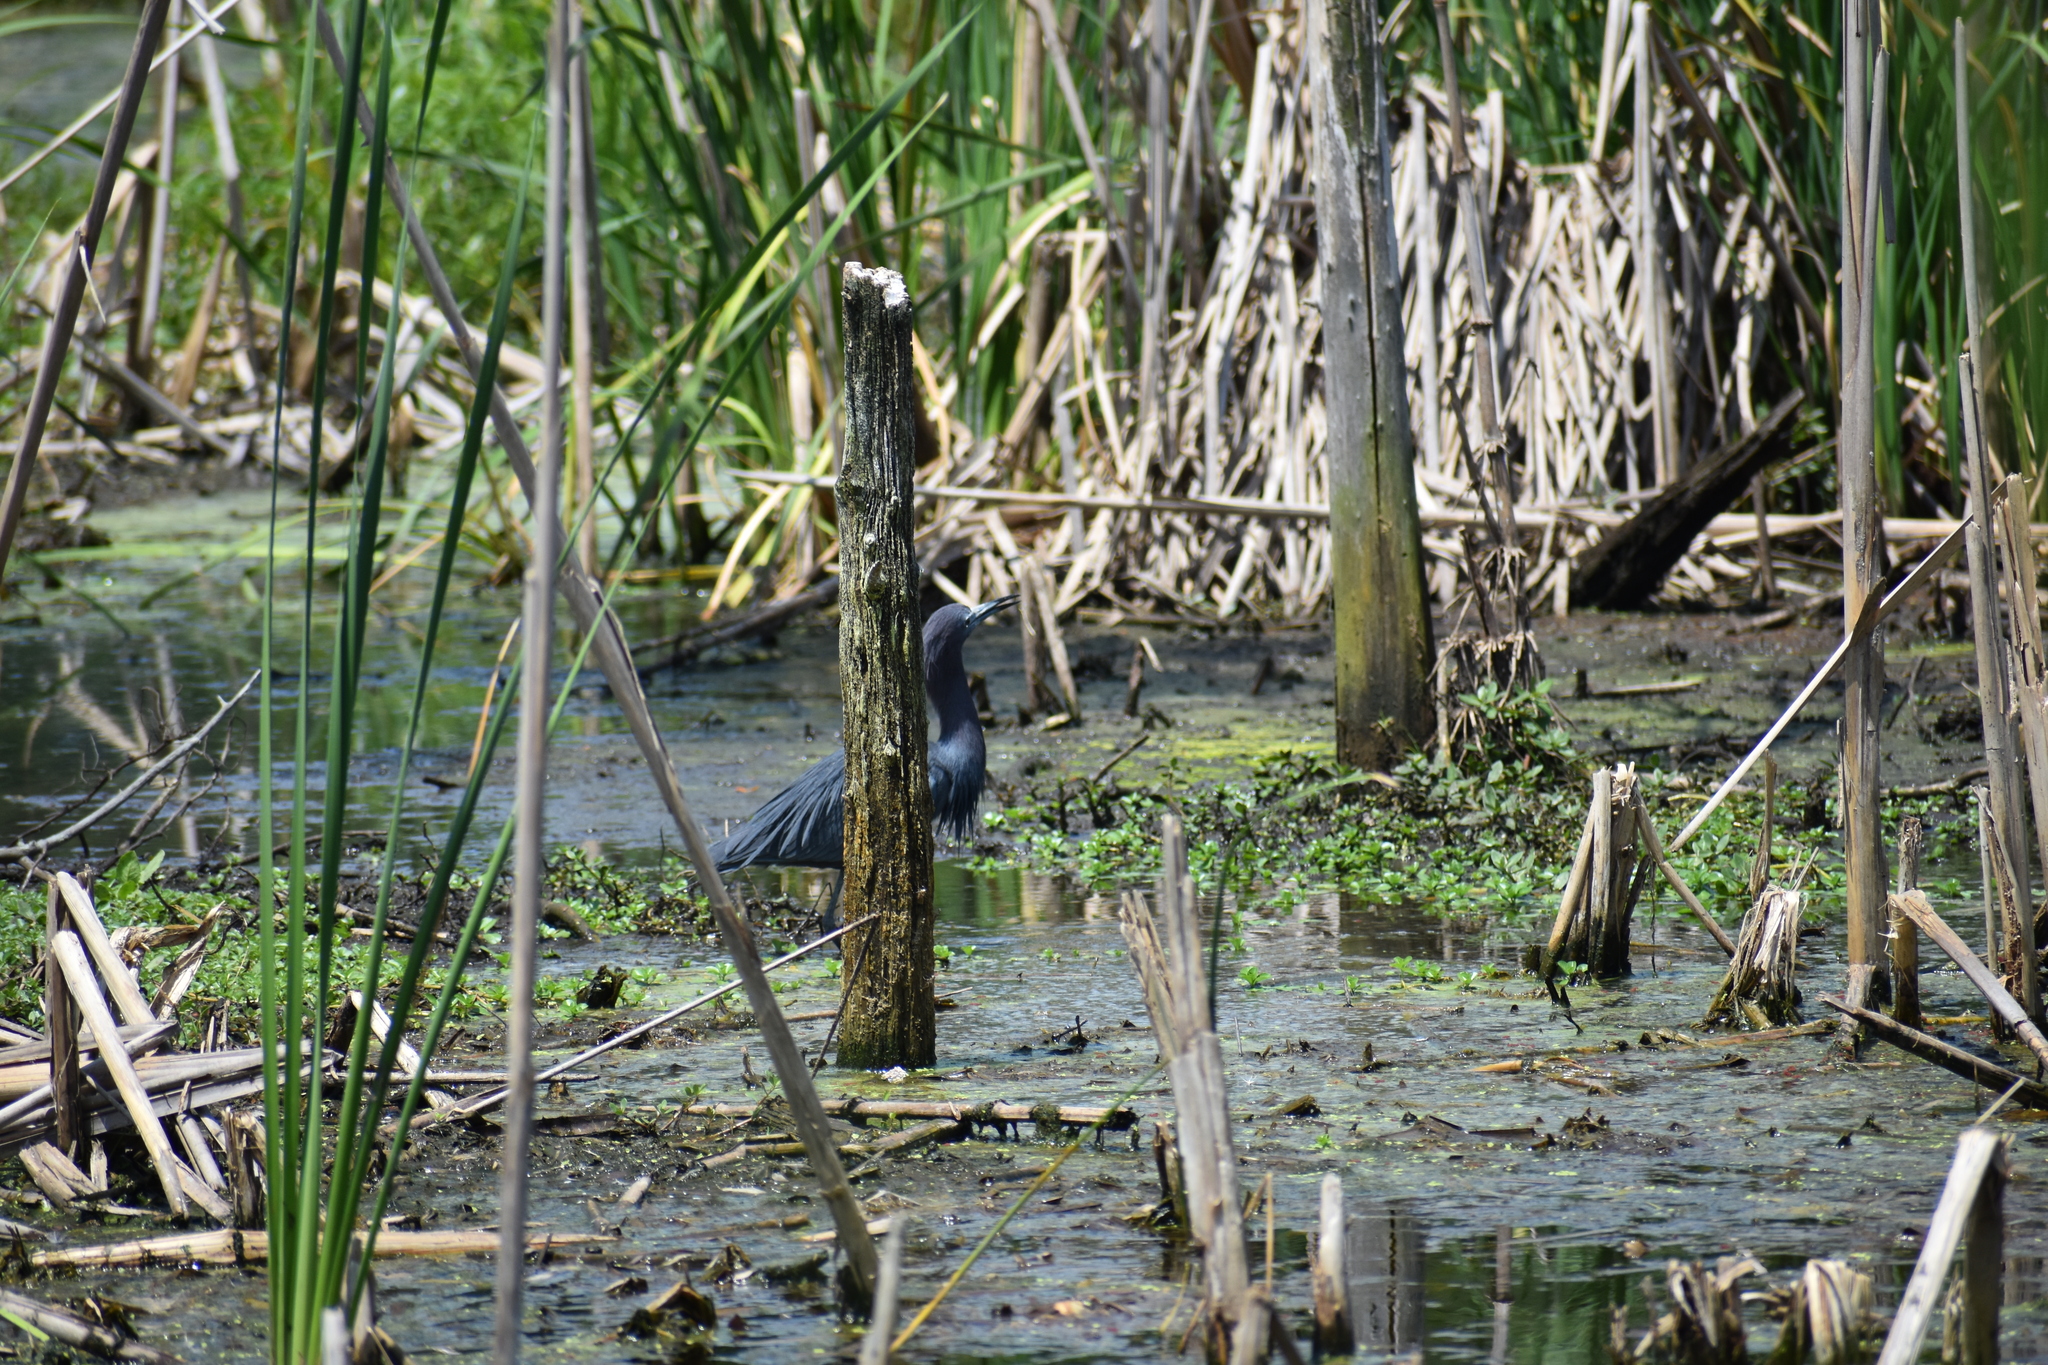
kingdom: Animalia
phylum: Chordata
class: Aves
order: Pelecaniformes
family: Ardeidae
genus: Egretta
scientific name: Egretta caerulea
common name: Little blue heron
